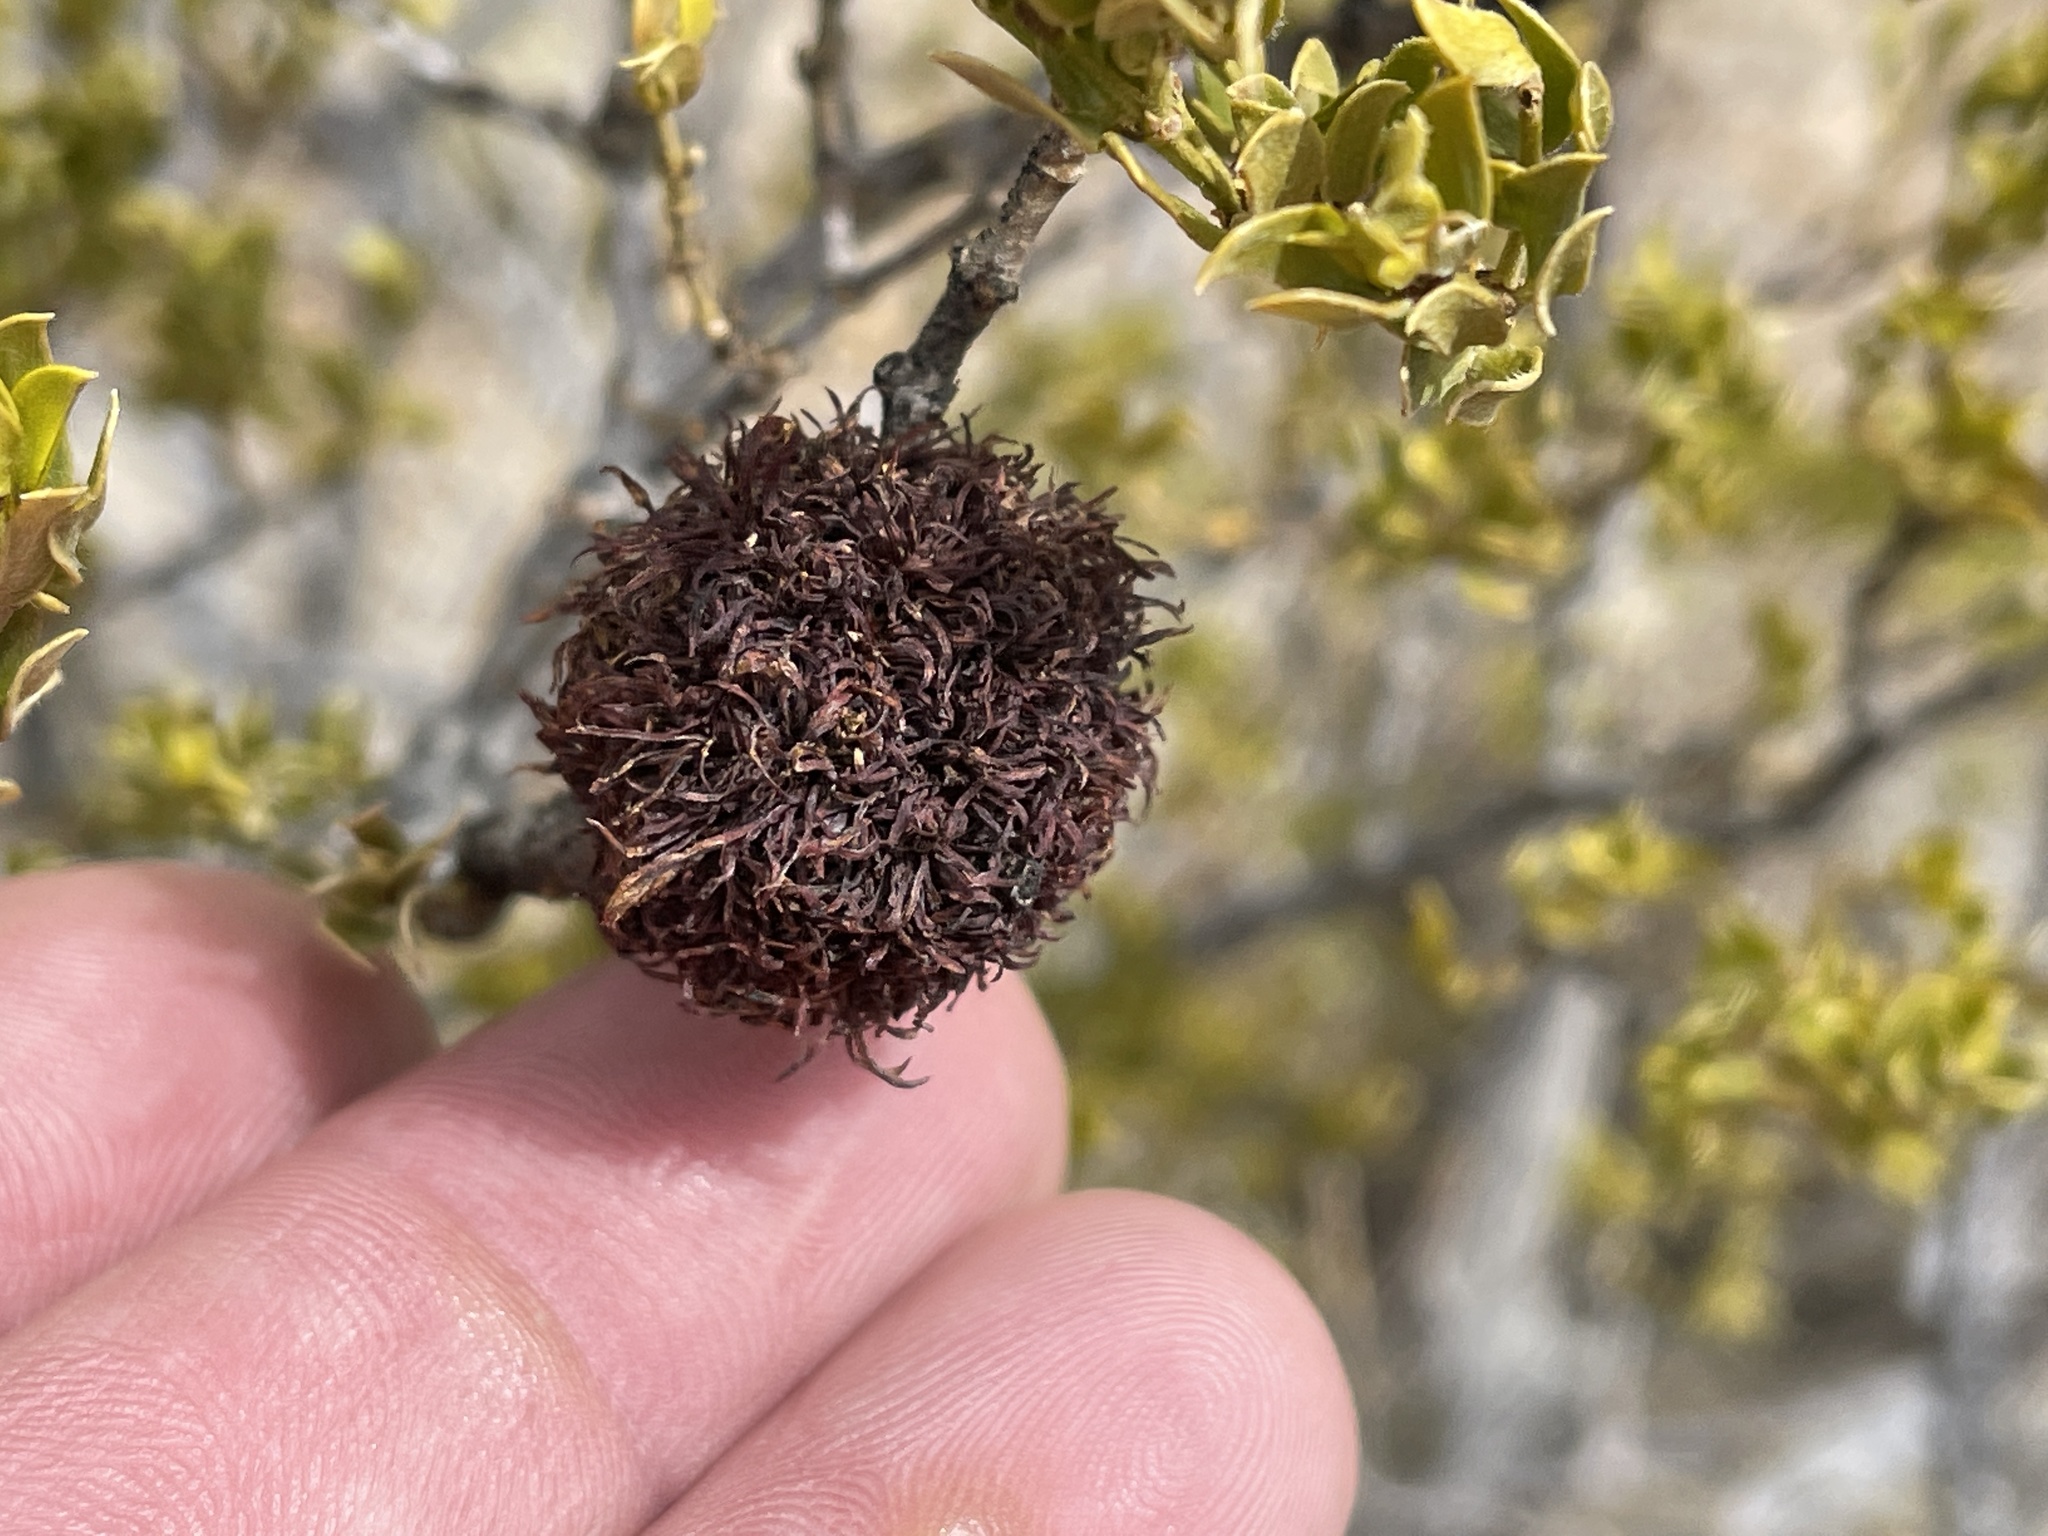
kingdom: Animalia
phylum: Arthropoda
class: Insecta
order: Diptera
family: Cecidomyiidae
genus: Asphondylia
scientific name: Asphondylia auripila
